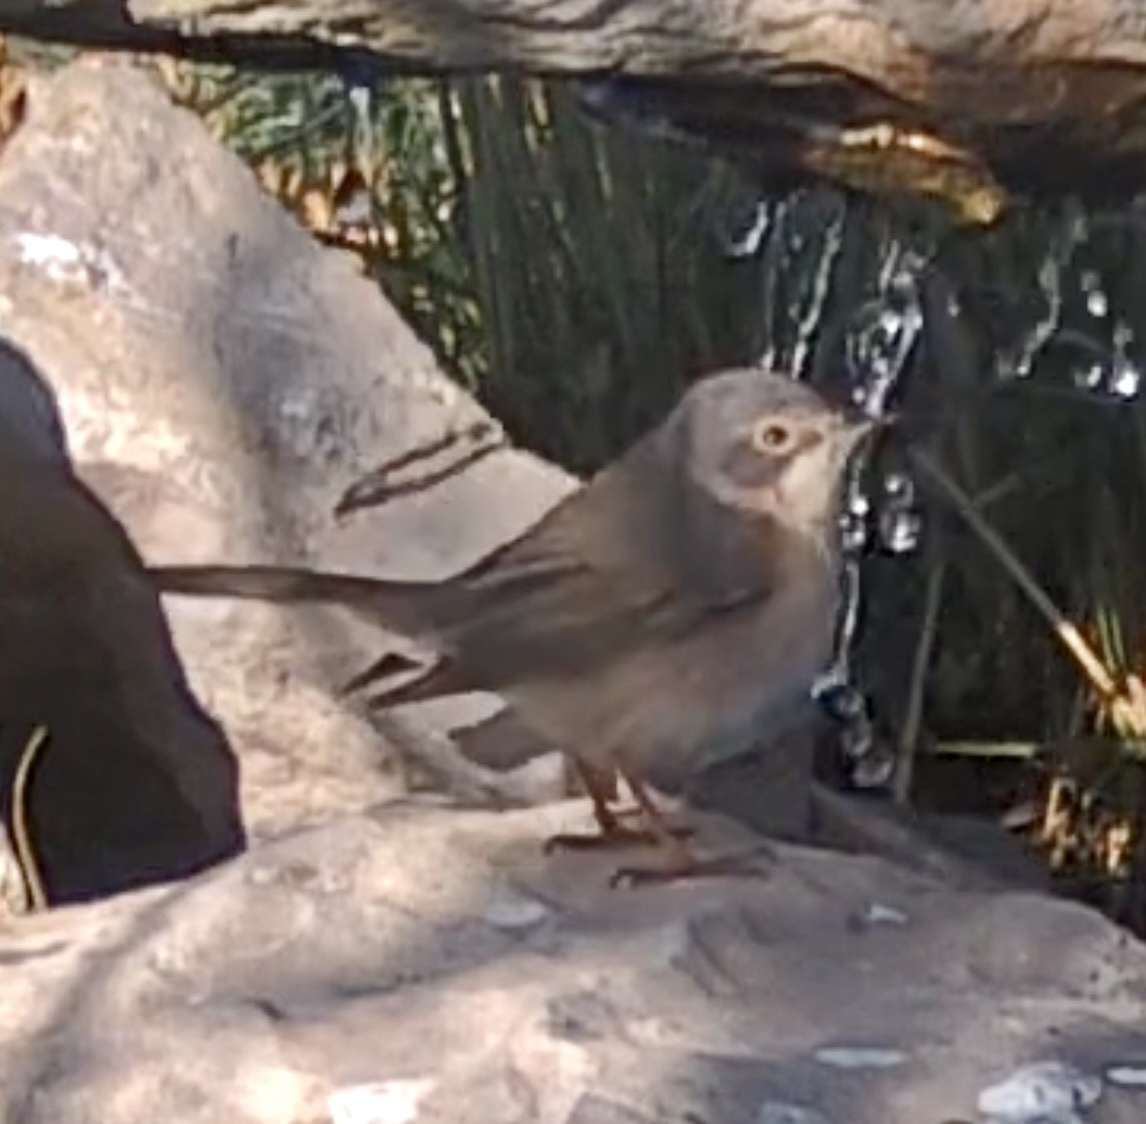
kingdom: Animalia
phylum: Chordata
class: Aves
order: Passeriformes
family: Sylviidae
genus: Curruca
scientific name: Curruca iberiae
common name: Western subalpine warbler
